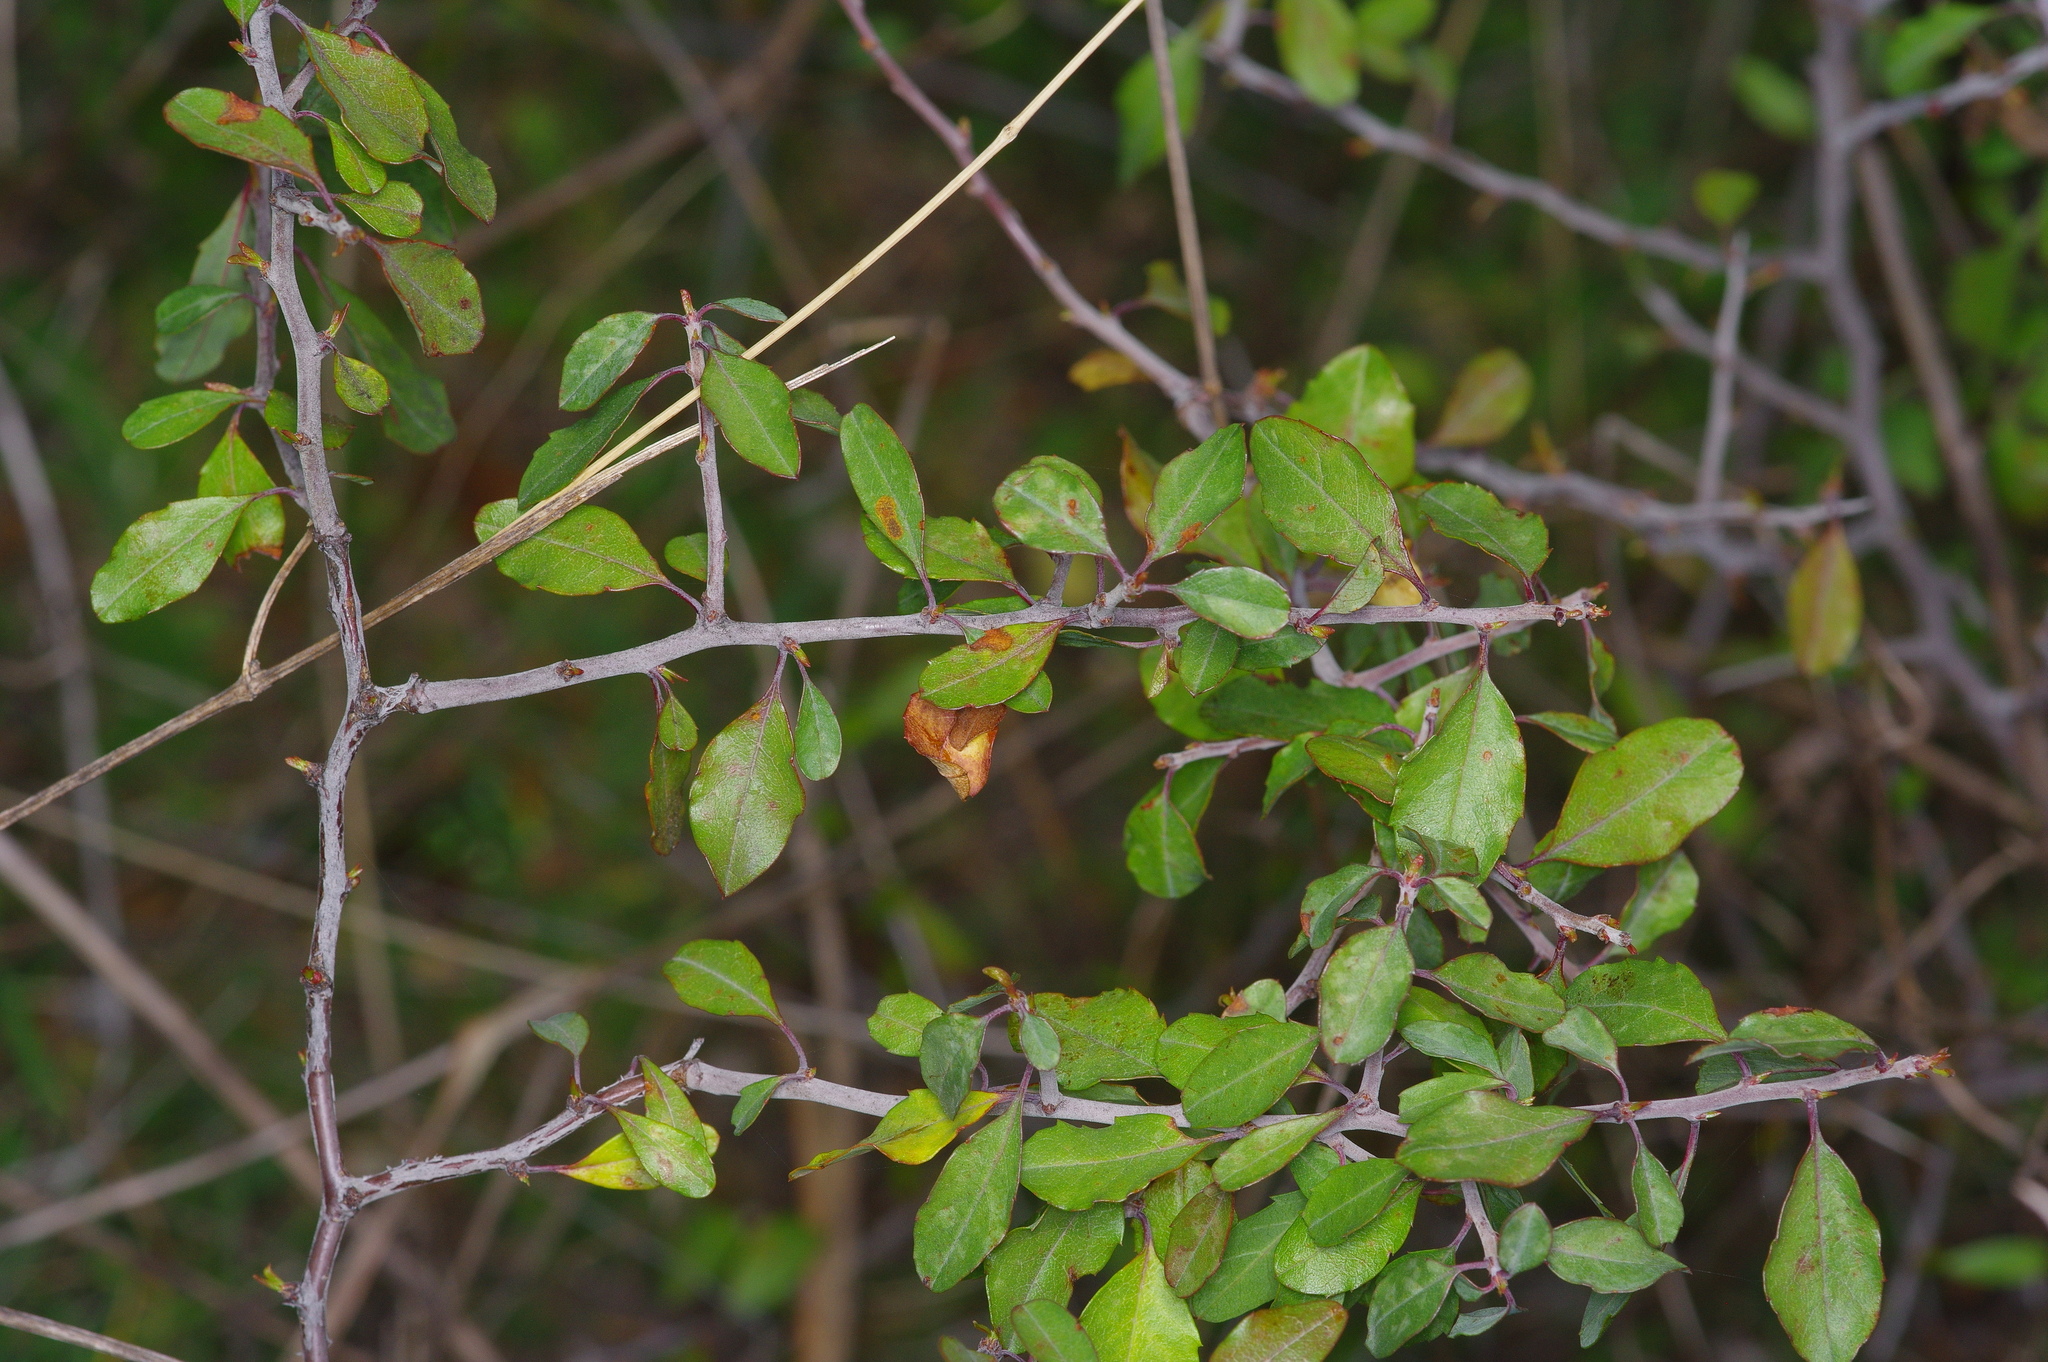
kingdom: Plantae
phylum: Tracheophyta
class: Magnoliopsida
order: Rosales
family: Rosaceae
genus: Prunus
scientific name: Prunus minutiflora
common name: Texas almond
